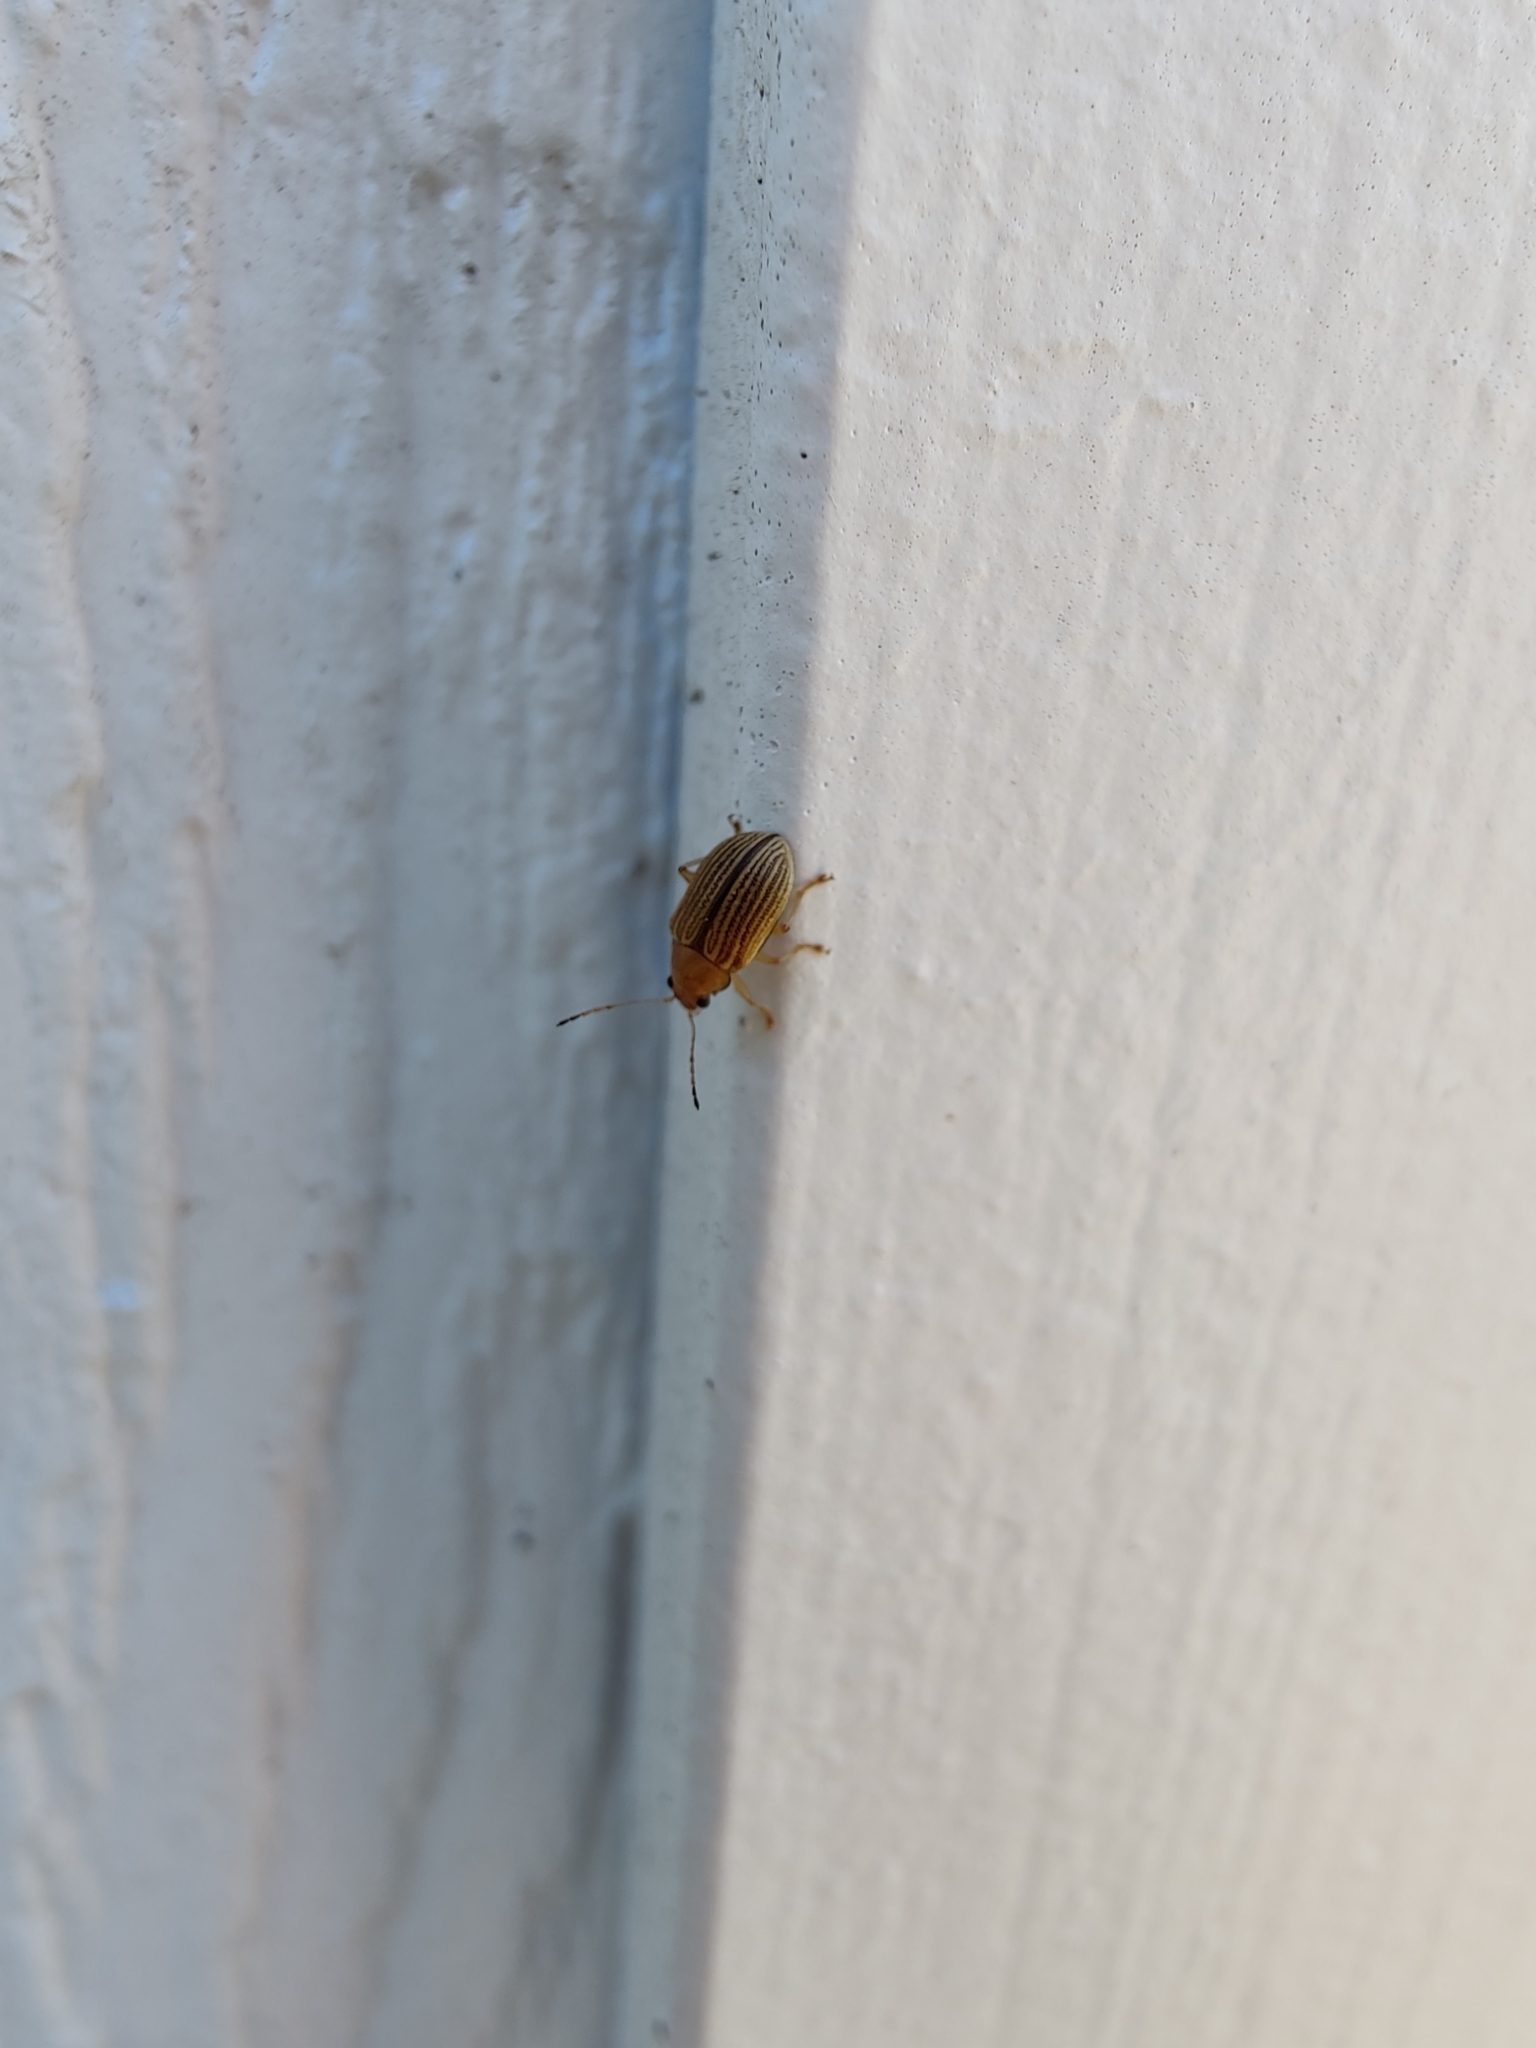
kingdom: Animalia
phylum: Arthropoda
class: Insecta
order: Coleoptera
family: Chrysomelidae
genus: Colaspis
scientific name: Colaspis brunnea
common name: Grape colaspis
